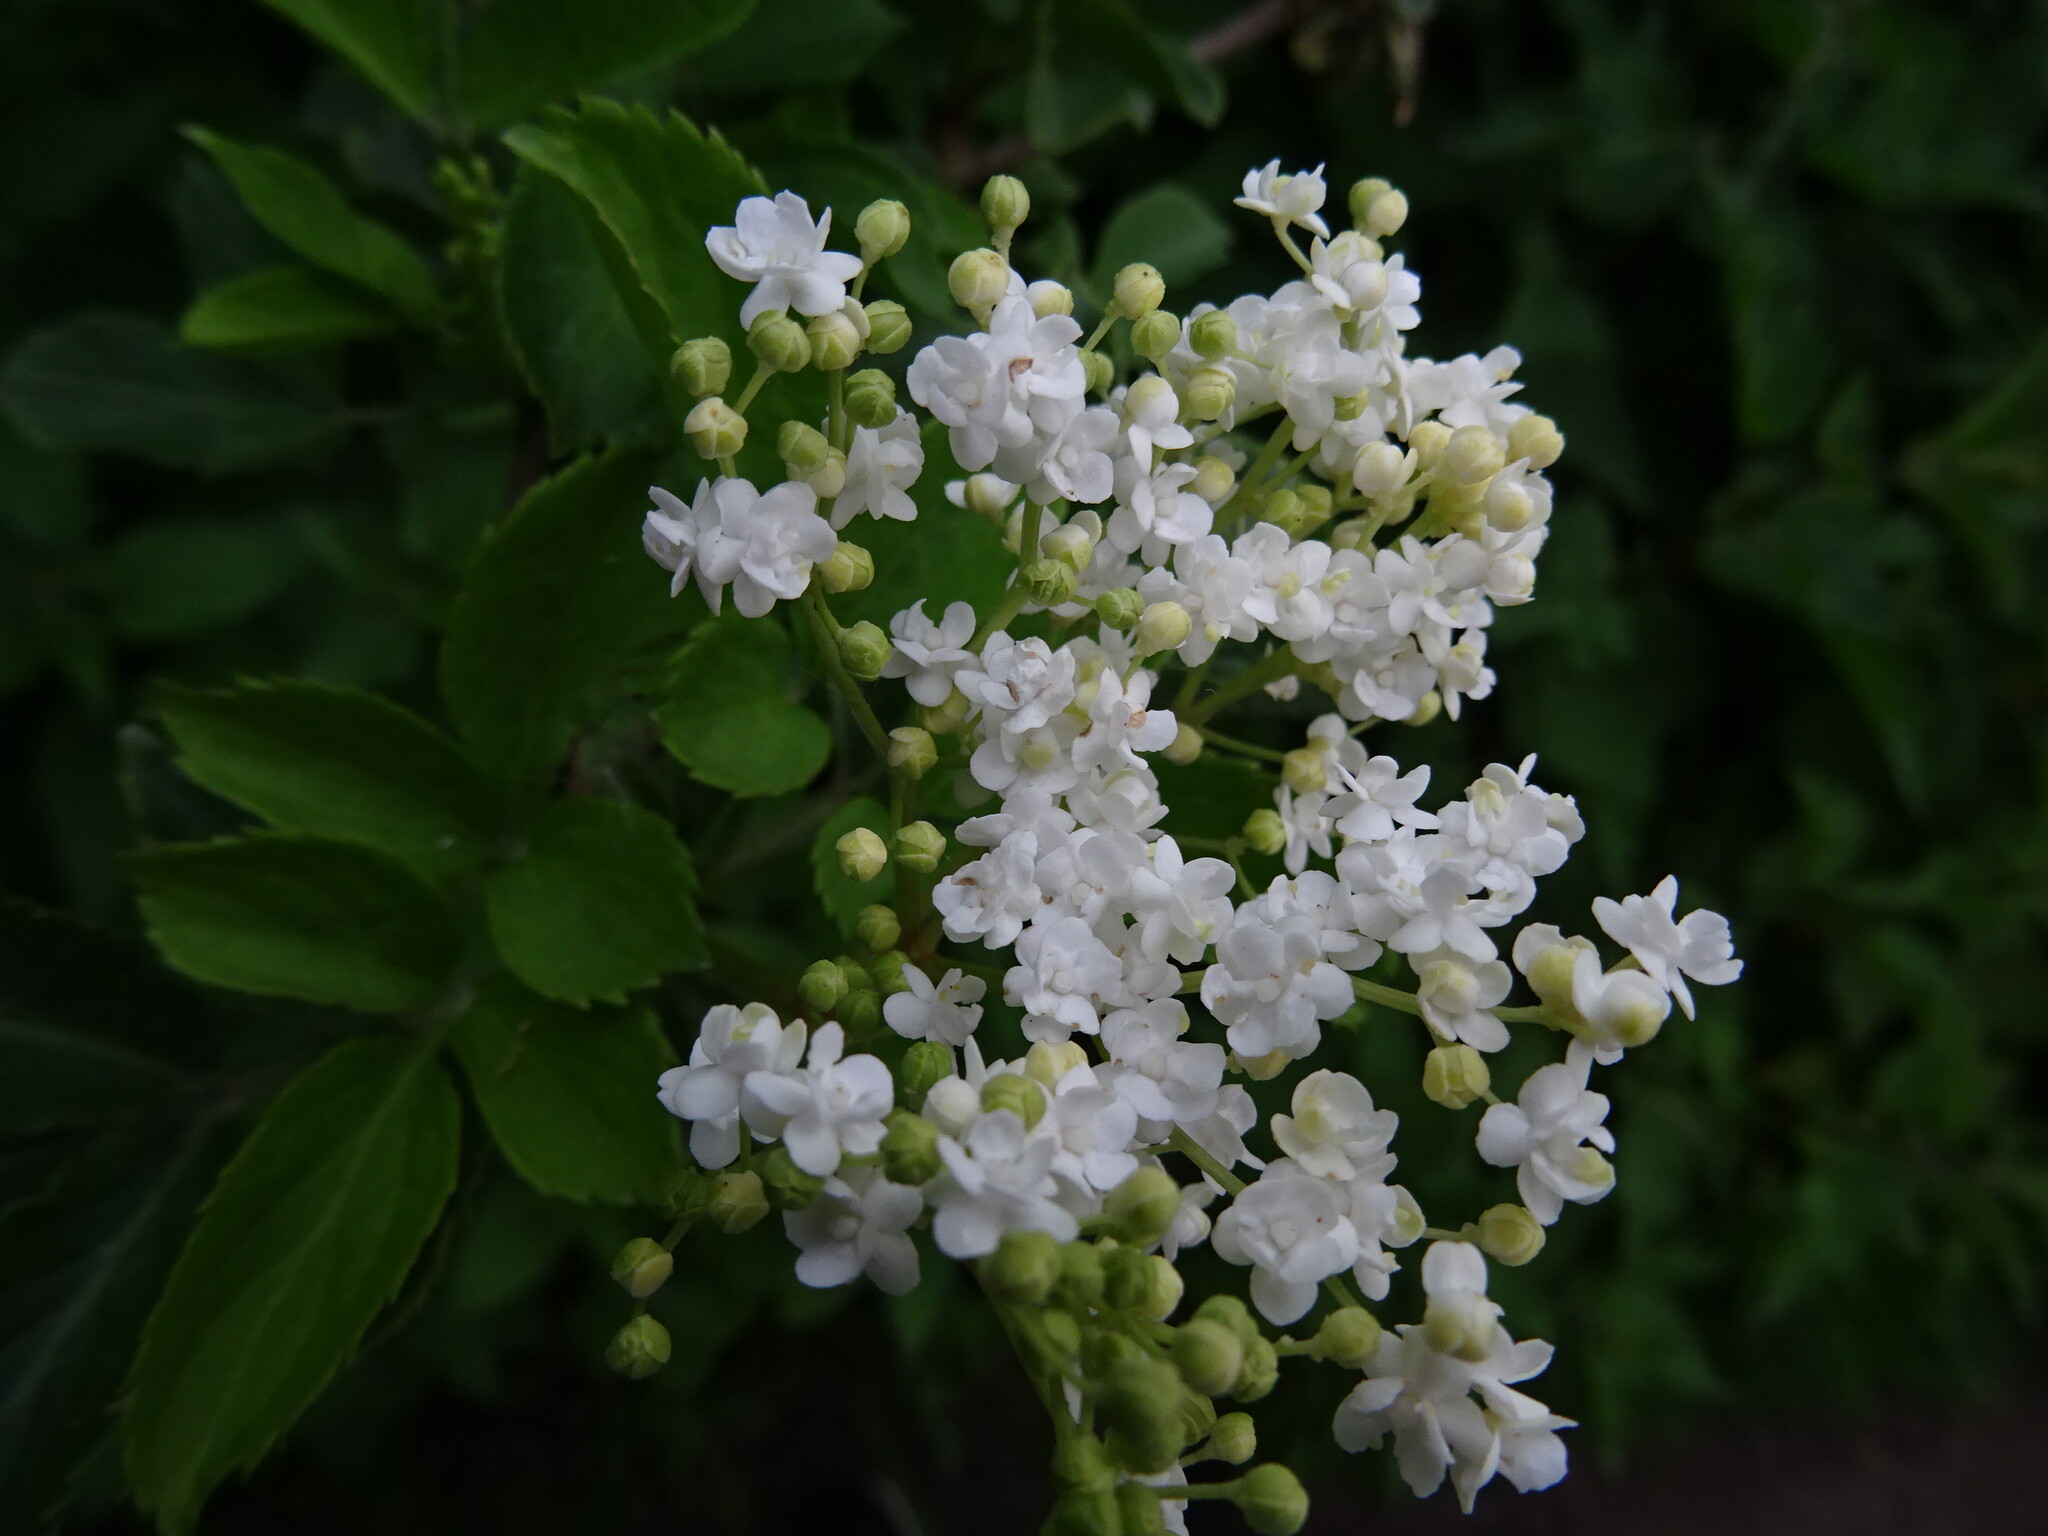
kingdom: Plantae
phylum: Tracheophyta
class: Magnoliopsida
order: Dipsacales
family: Viburnaceae
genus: Sambucus
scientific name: Sambucus nigra
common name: Elder
